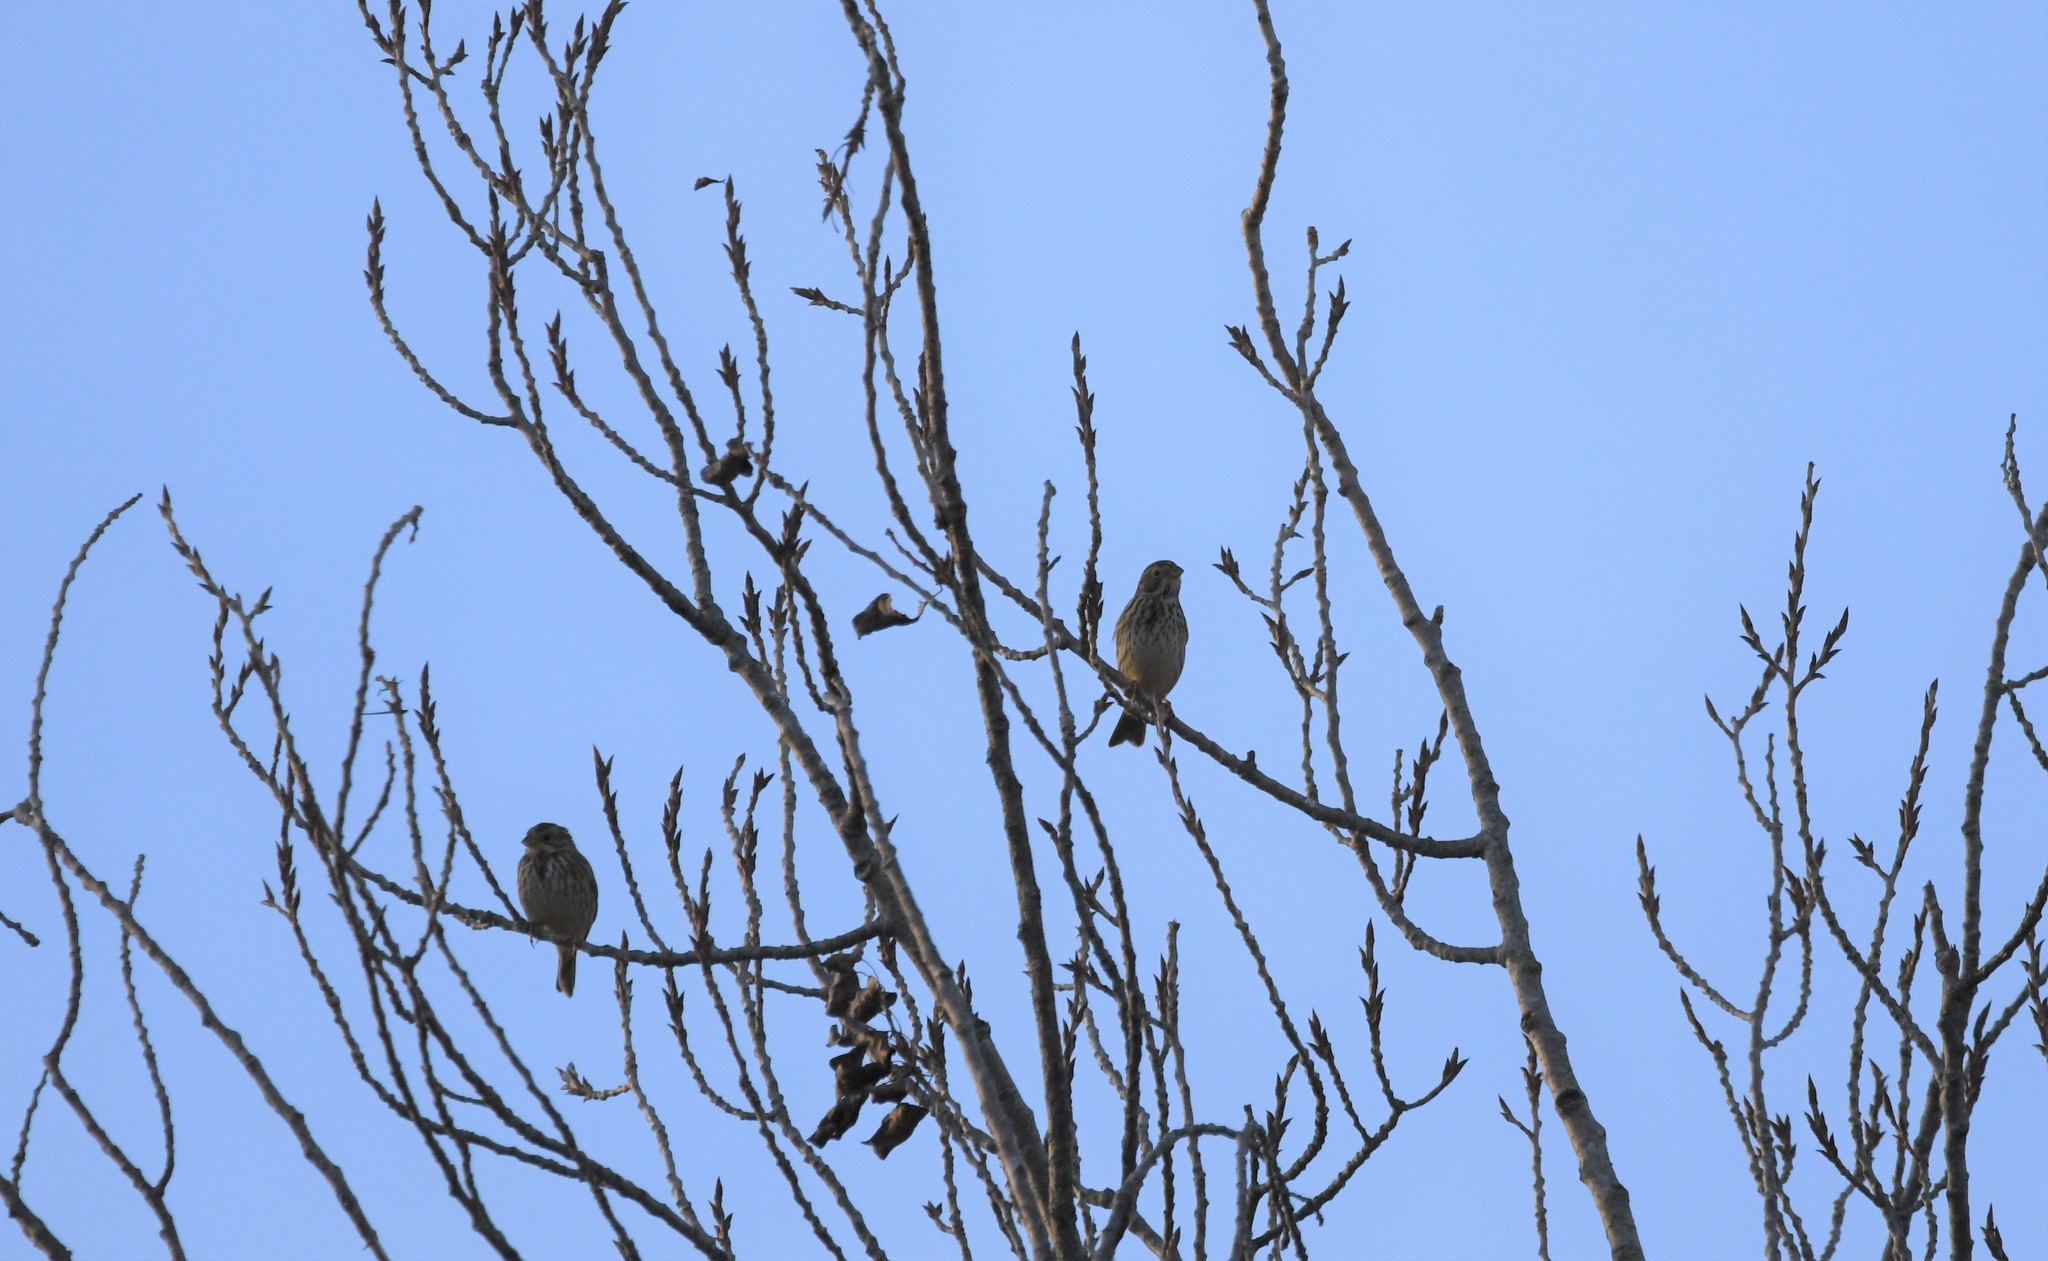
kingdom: Animalia
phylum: Chordata
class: Aves
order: Passeriformes
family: Emberizidae
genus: Emberiza
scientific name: Emberiza calandra
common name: Corn bunting
